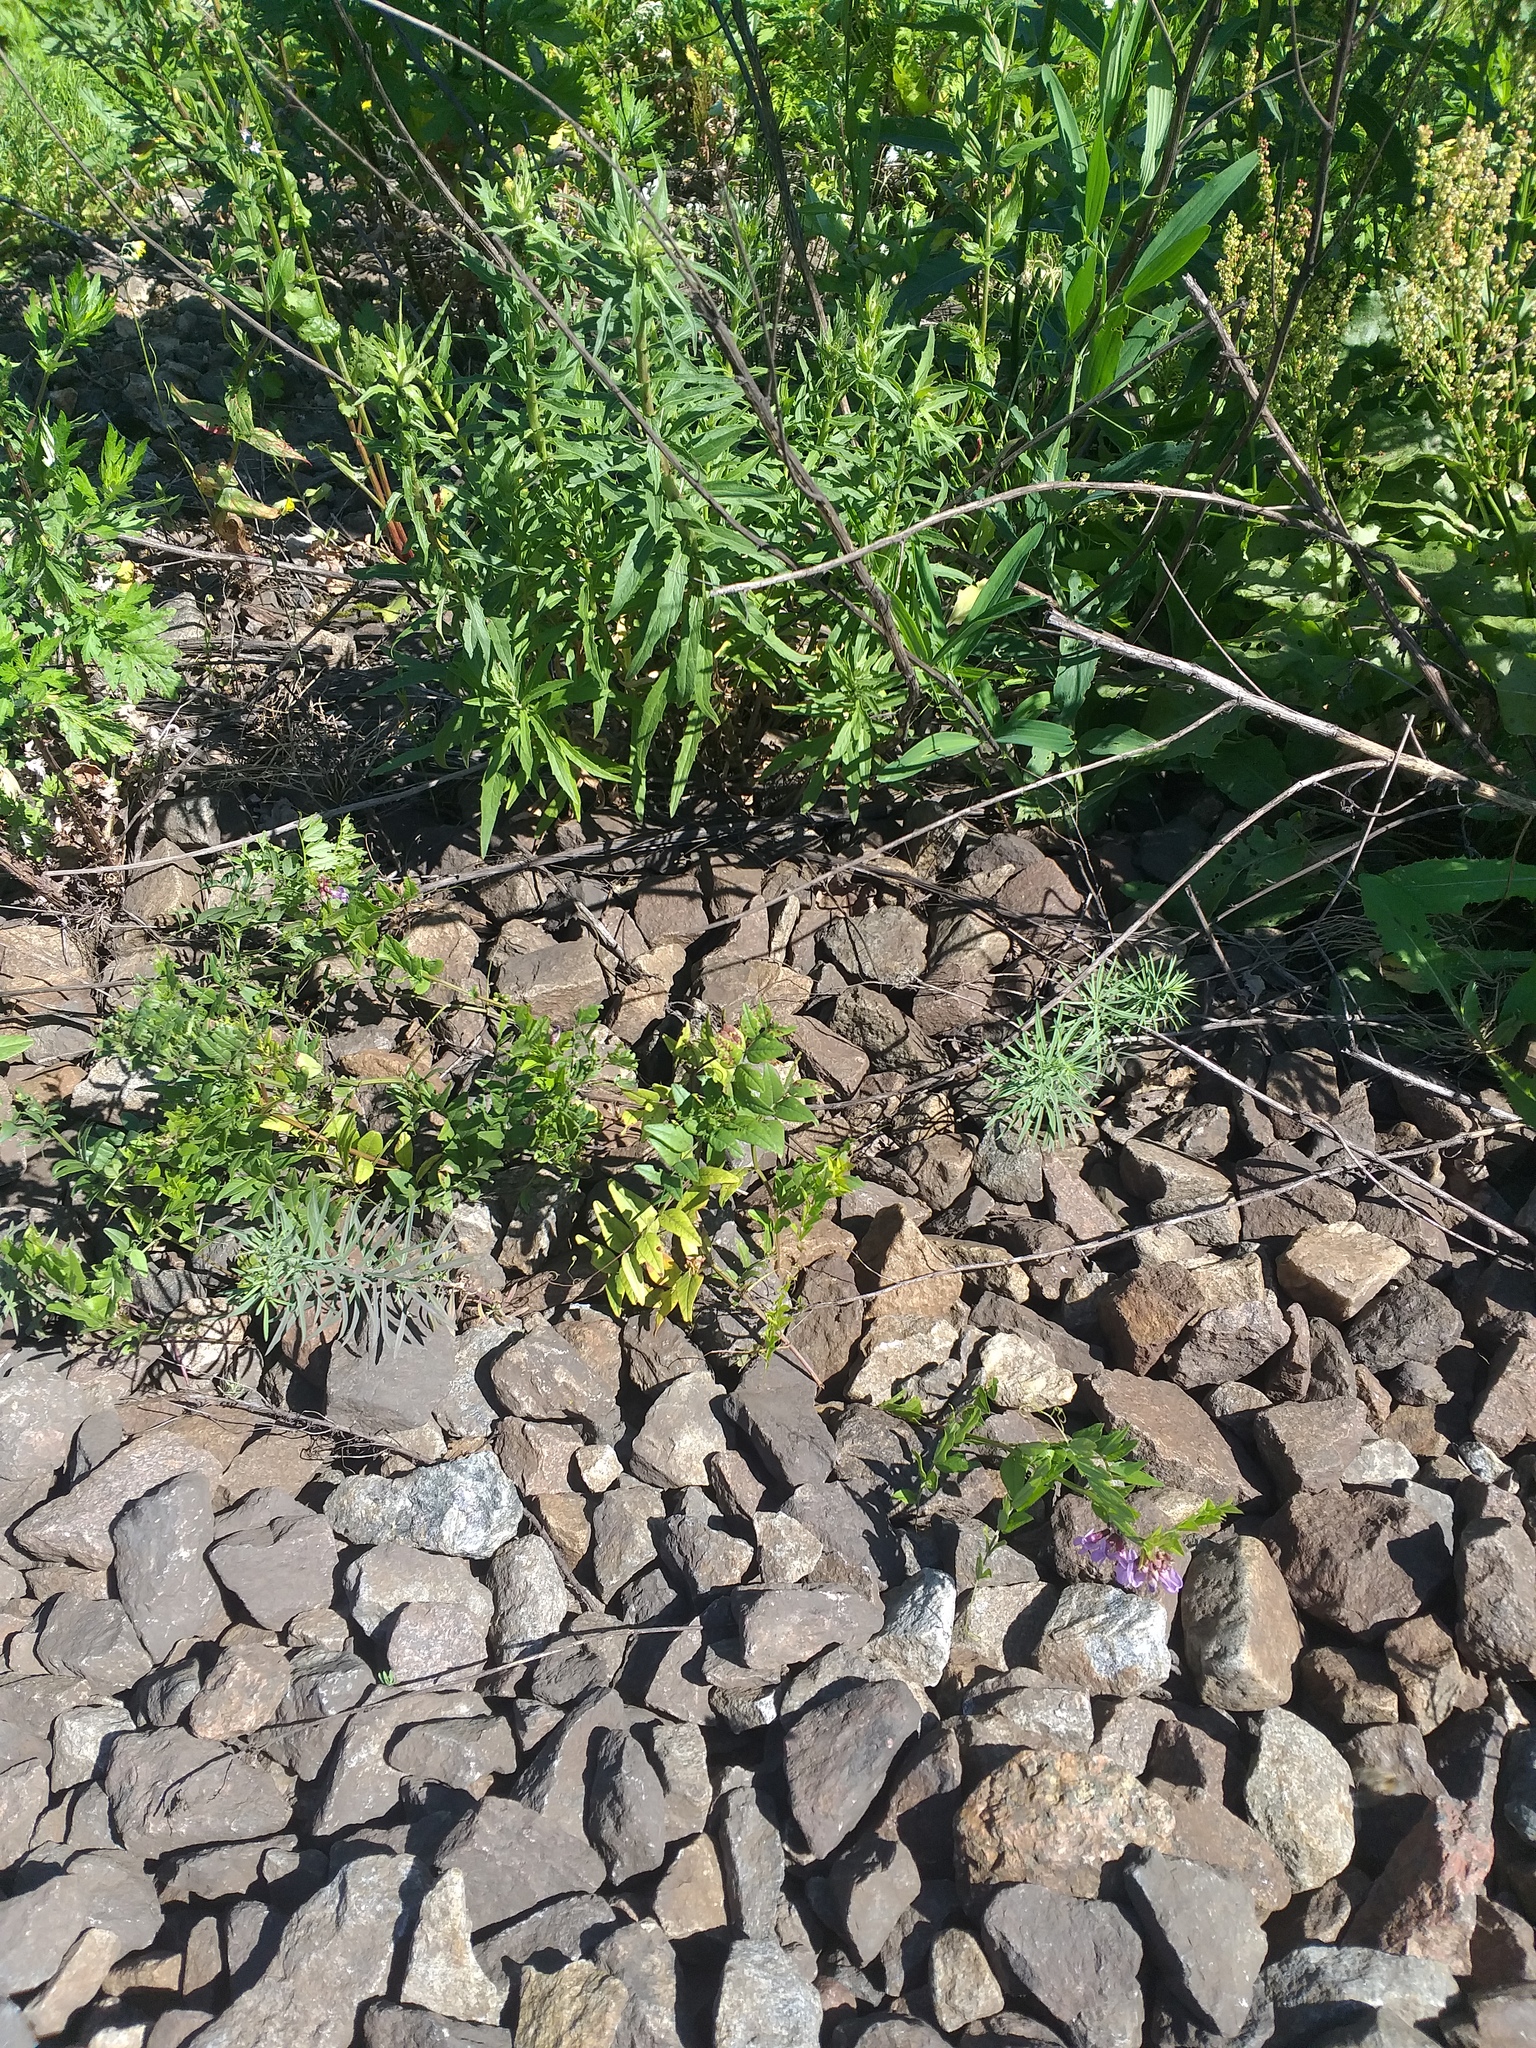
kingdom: Plantae
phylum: Tracheophyta
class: Magnoliopsida
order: Fabales
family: Fabaceae
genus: Vicia
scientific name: Vicia sepium
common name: Bush vetch
